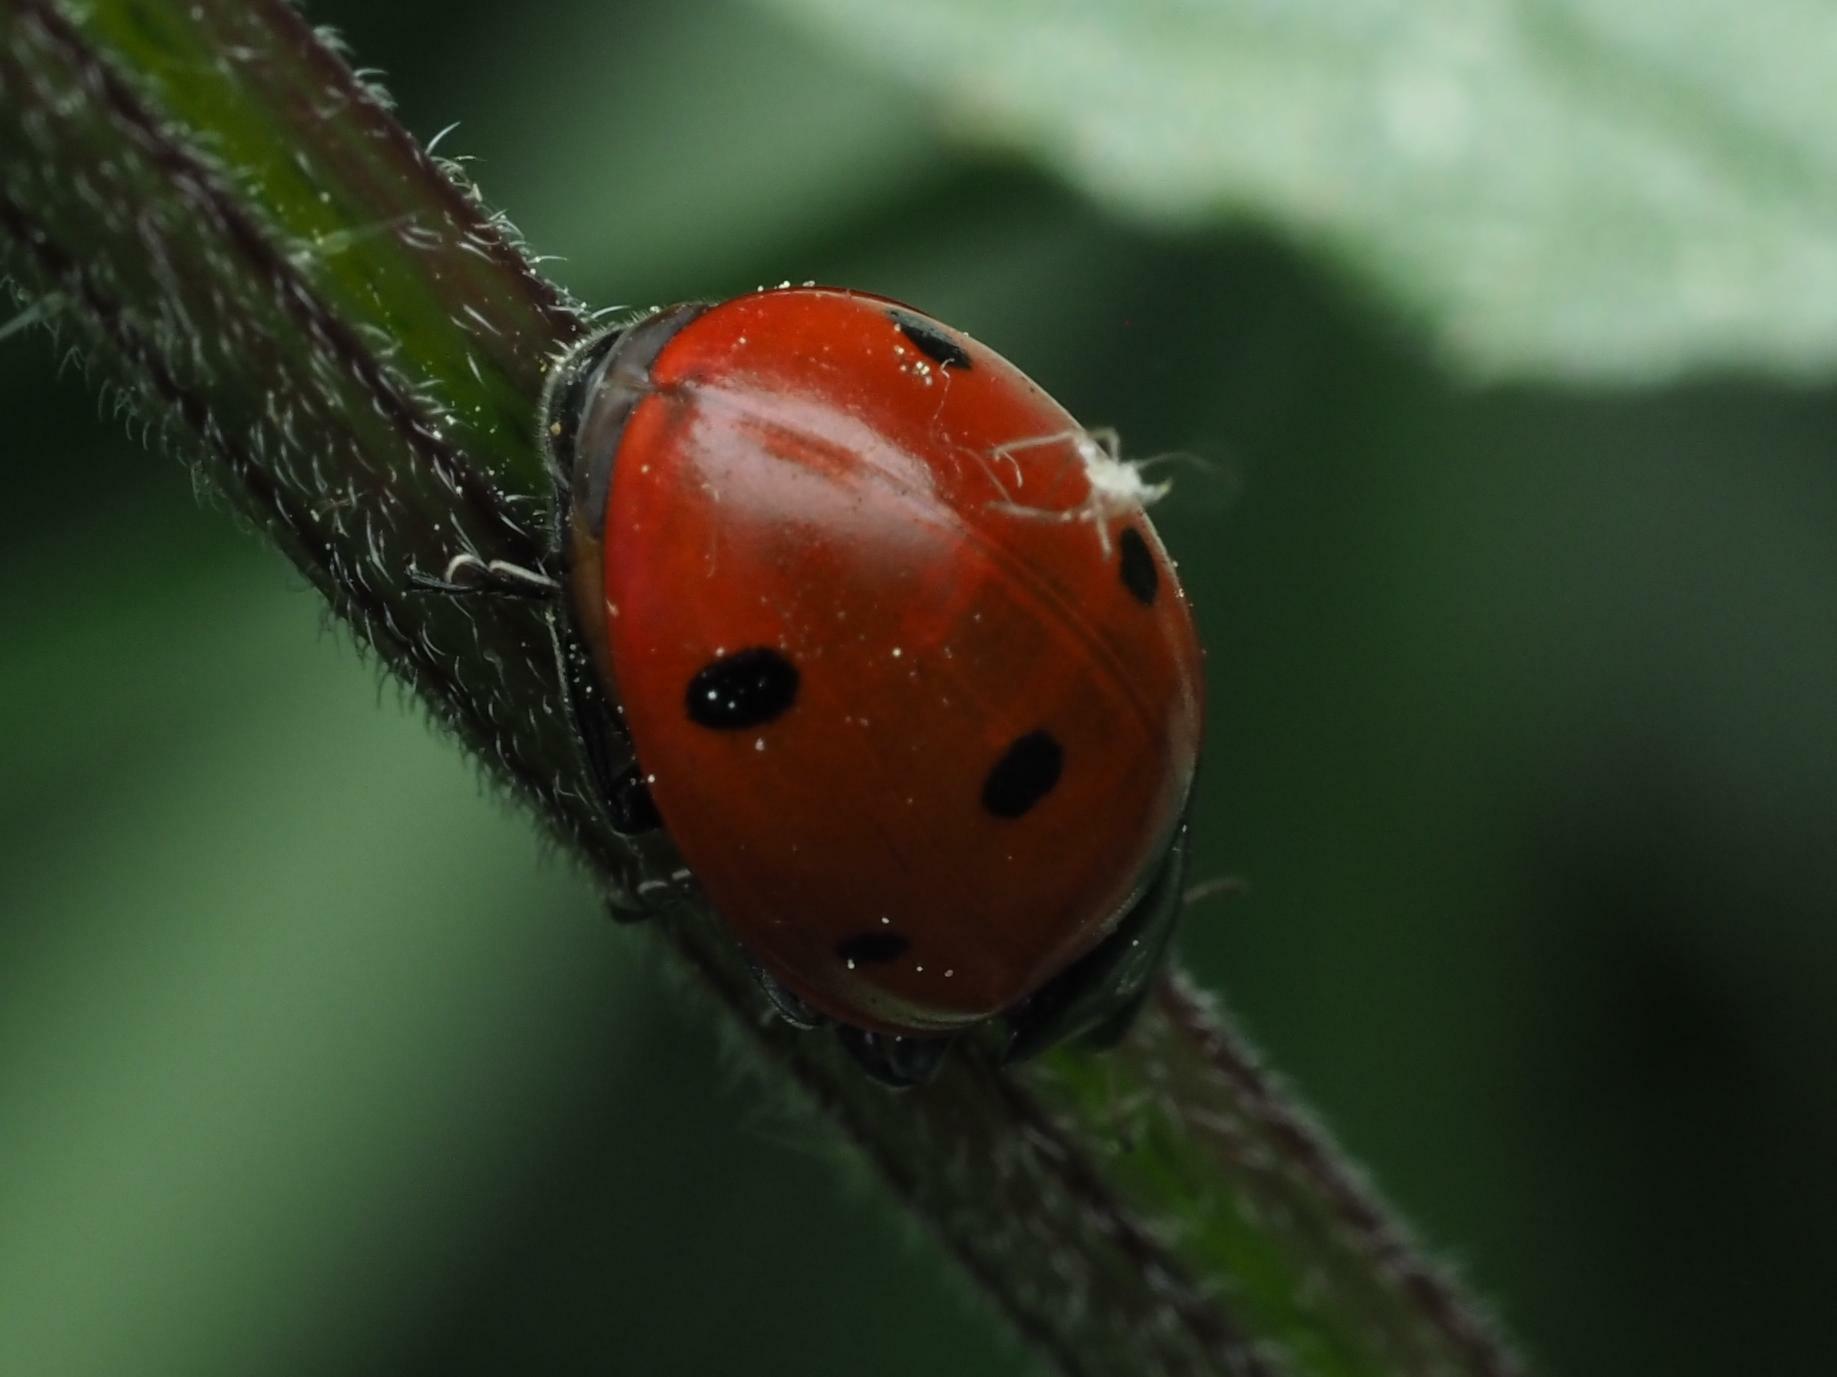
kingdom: Animalia
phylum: Arthropoda
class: Insecta
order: Coleoptera
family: Coccinellidae
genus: Coccinella
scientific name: Coccinella septempunctata
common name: Sevenspotted lady beetle
